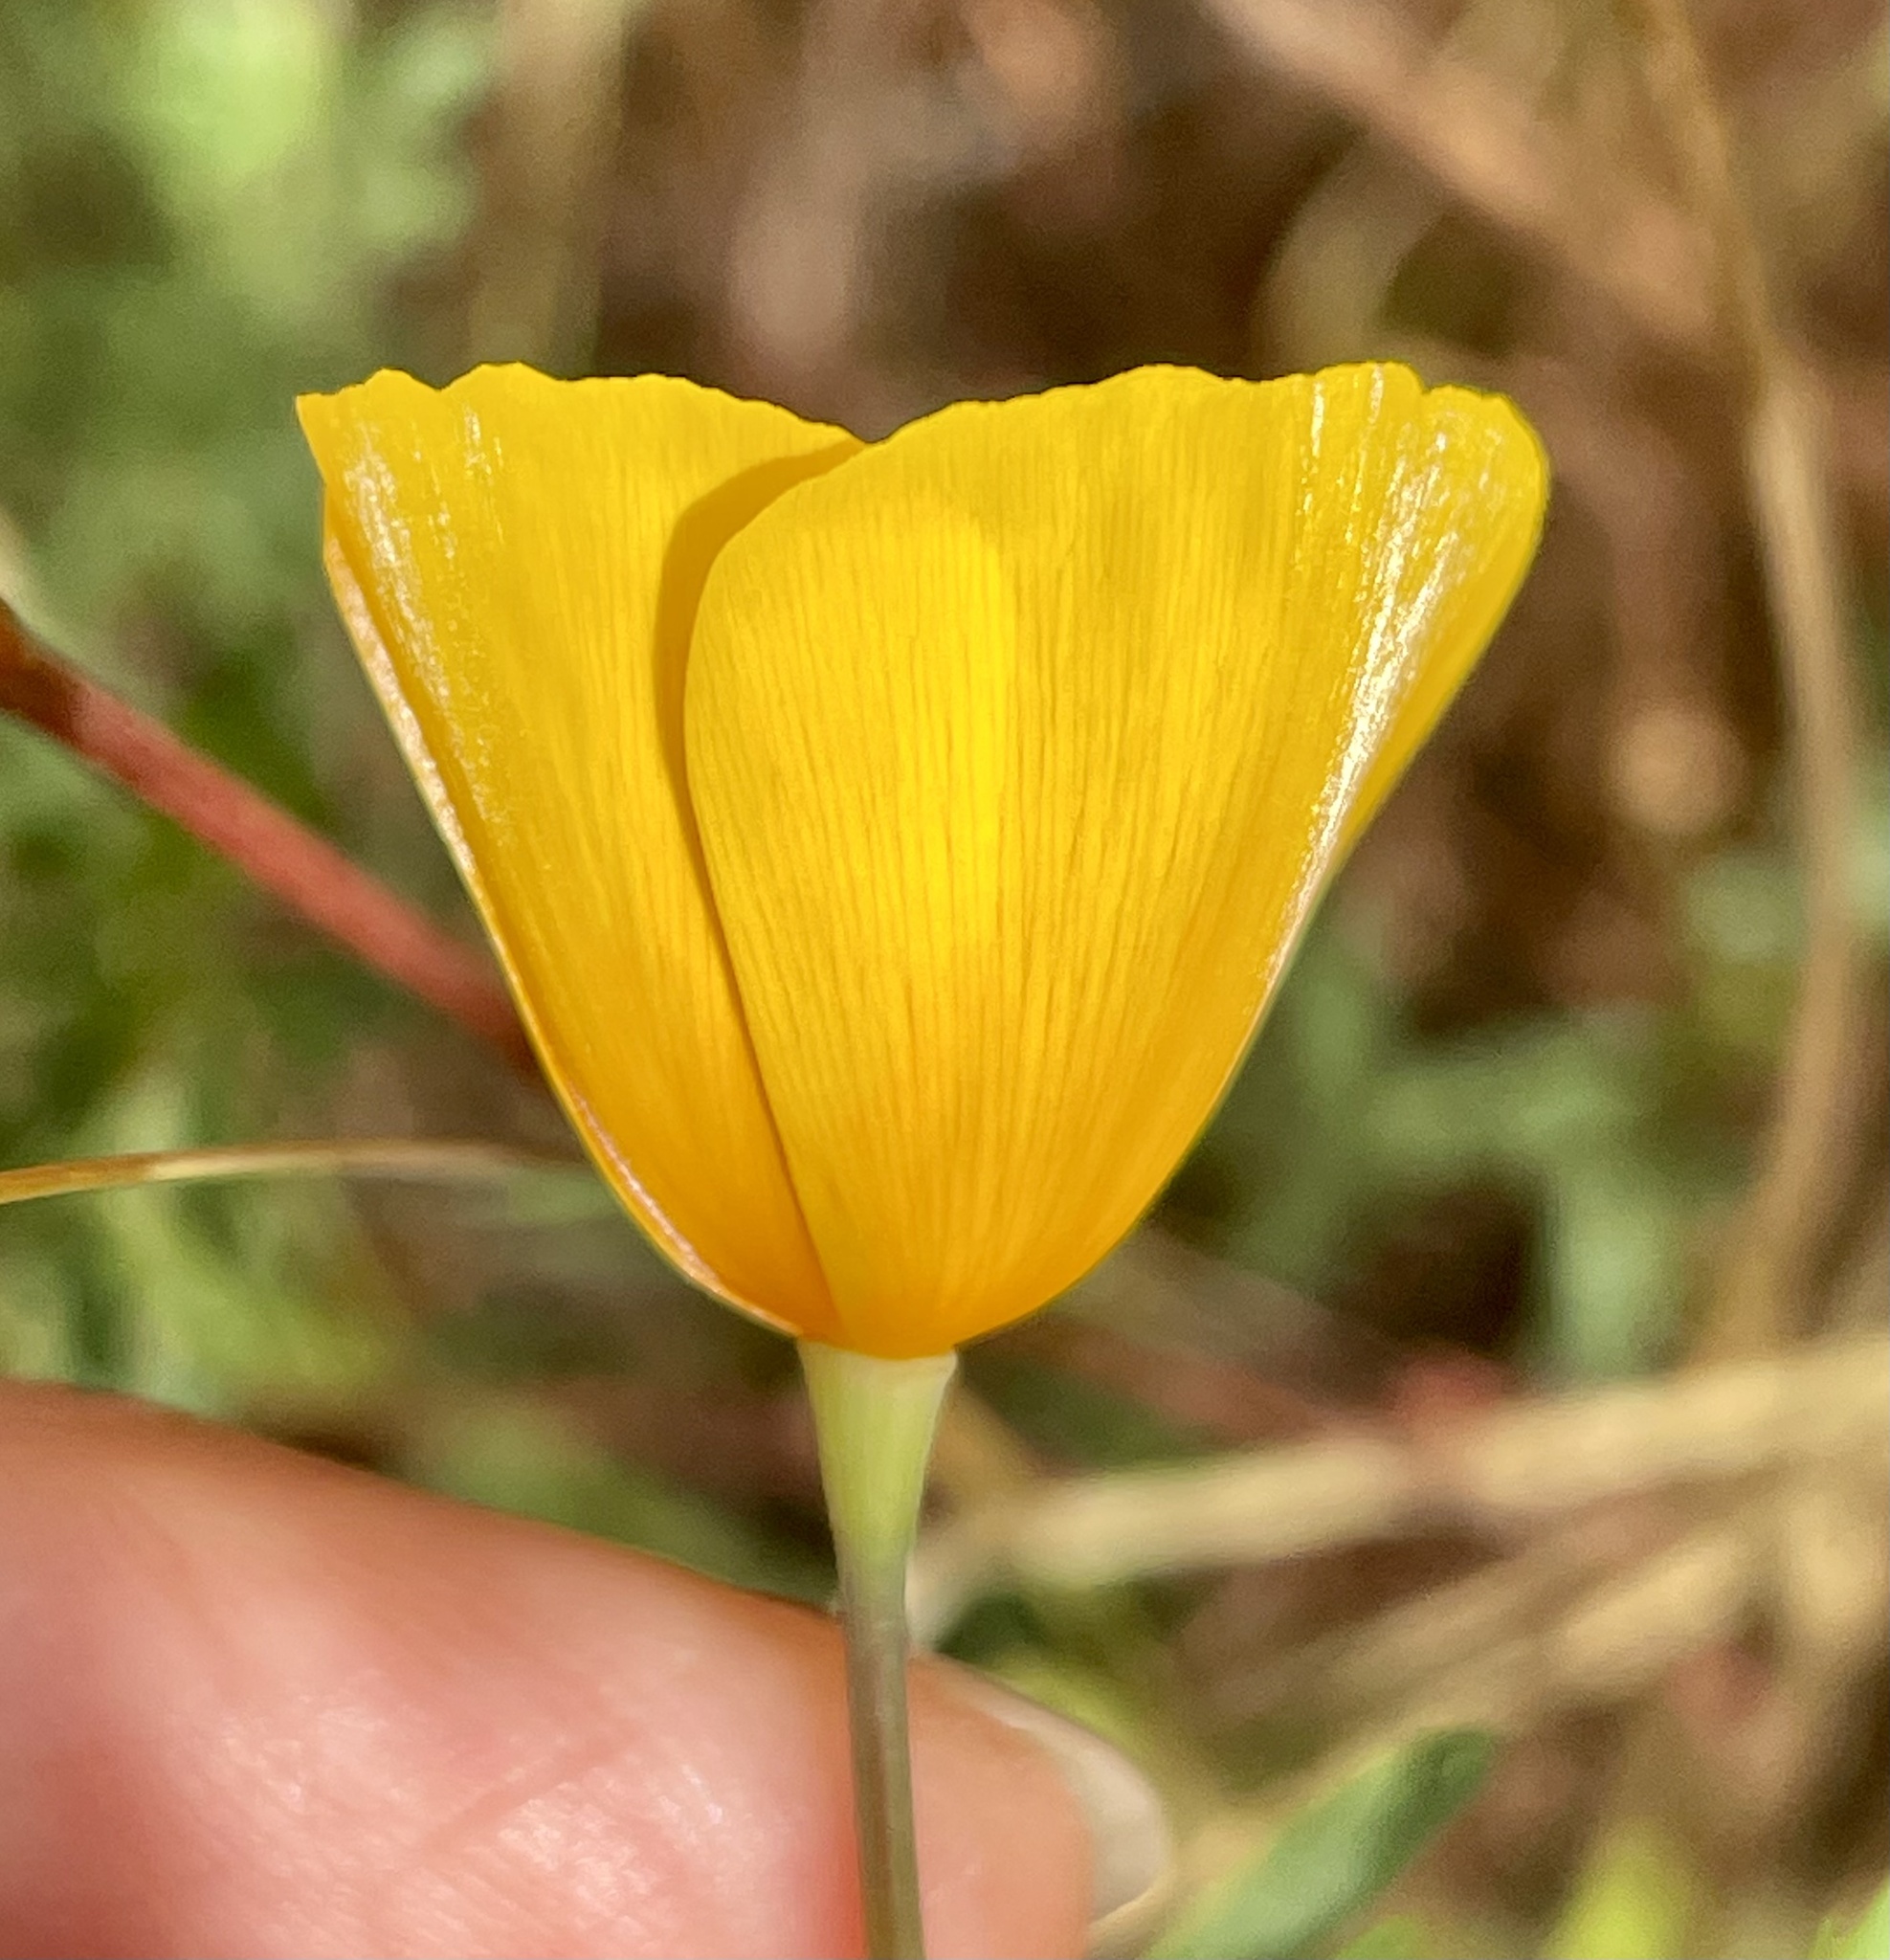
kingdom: Plantae
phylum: Tracheophyta
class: Magnoliopsida
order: Ranunculales
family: Papaveraceae
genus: Eschscholzia
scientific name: Eschscholzia caespitosa
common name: Tufted california-poppy
